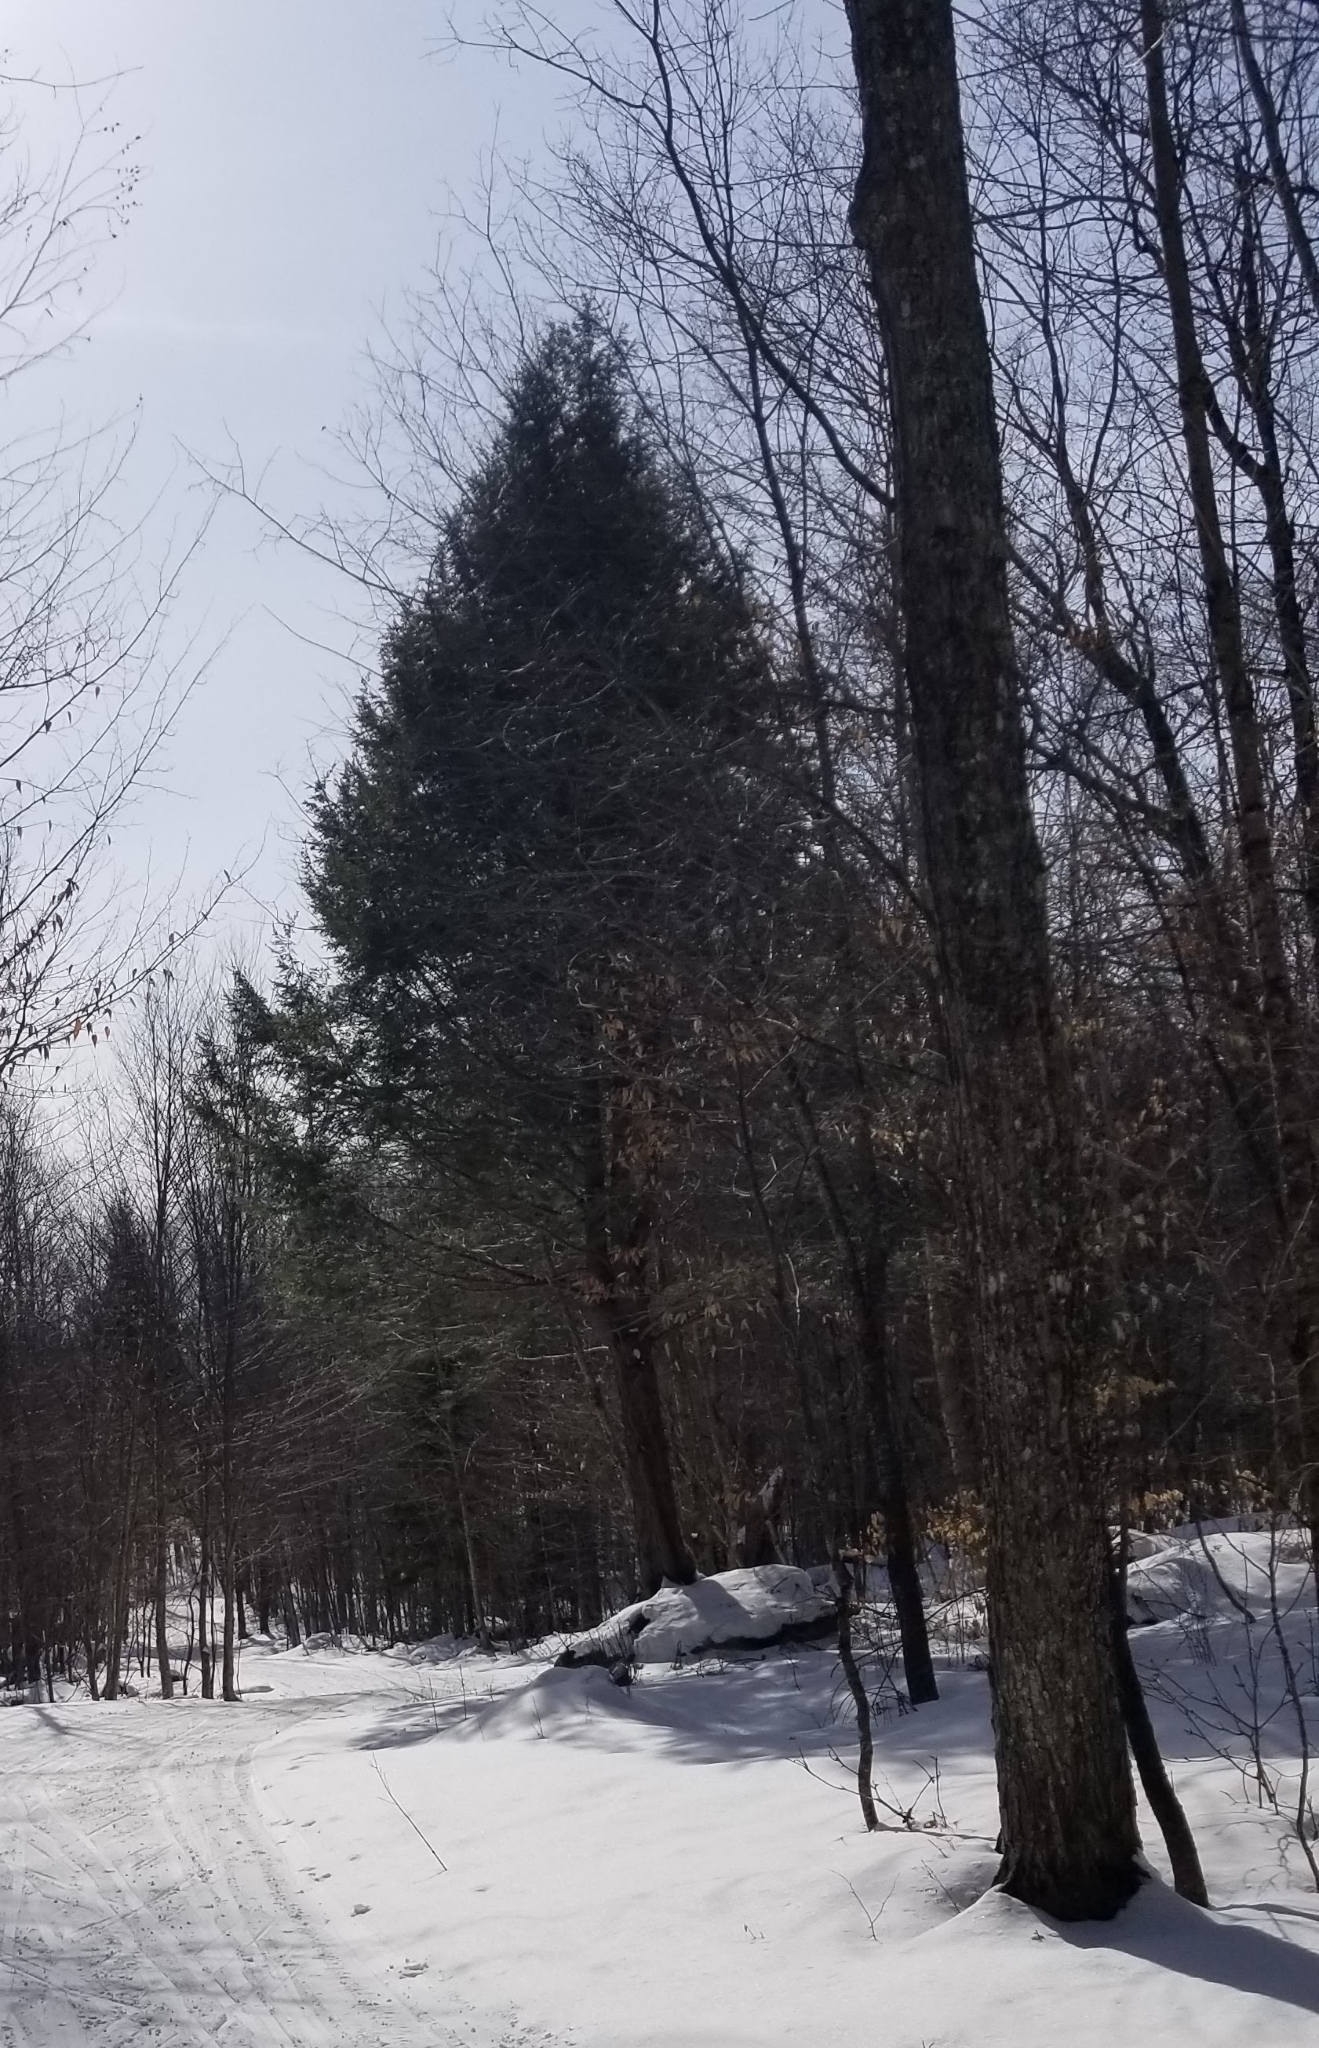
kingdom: Plantae
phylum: Tracheophyta
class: Pinopsida
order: Pinales
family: Pinaceae
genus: Tsuga
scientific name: Tsuga canadensis
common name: Eastern hemlock
